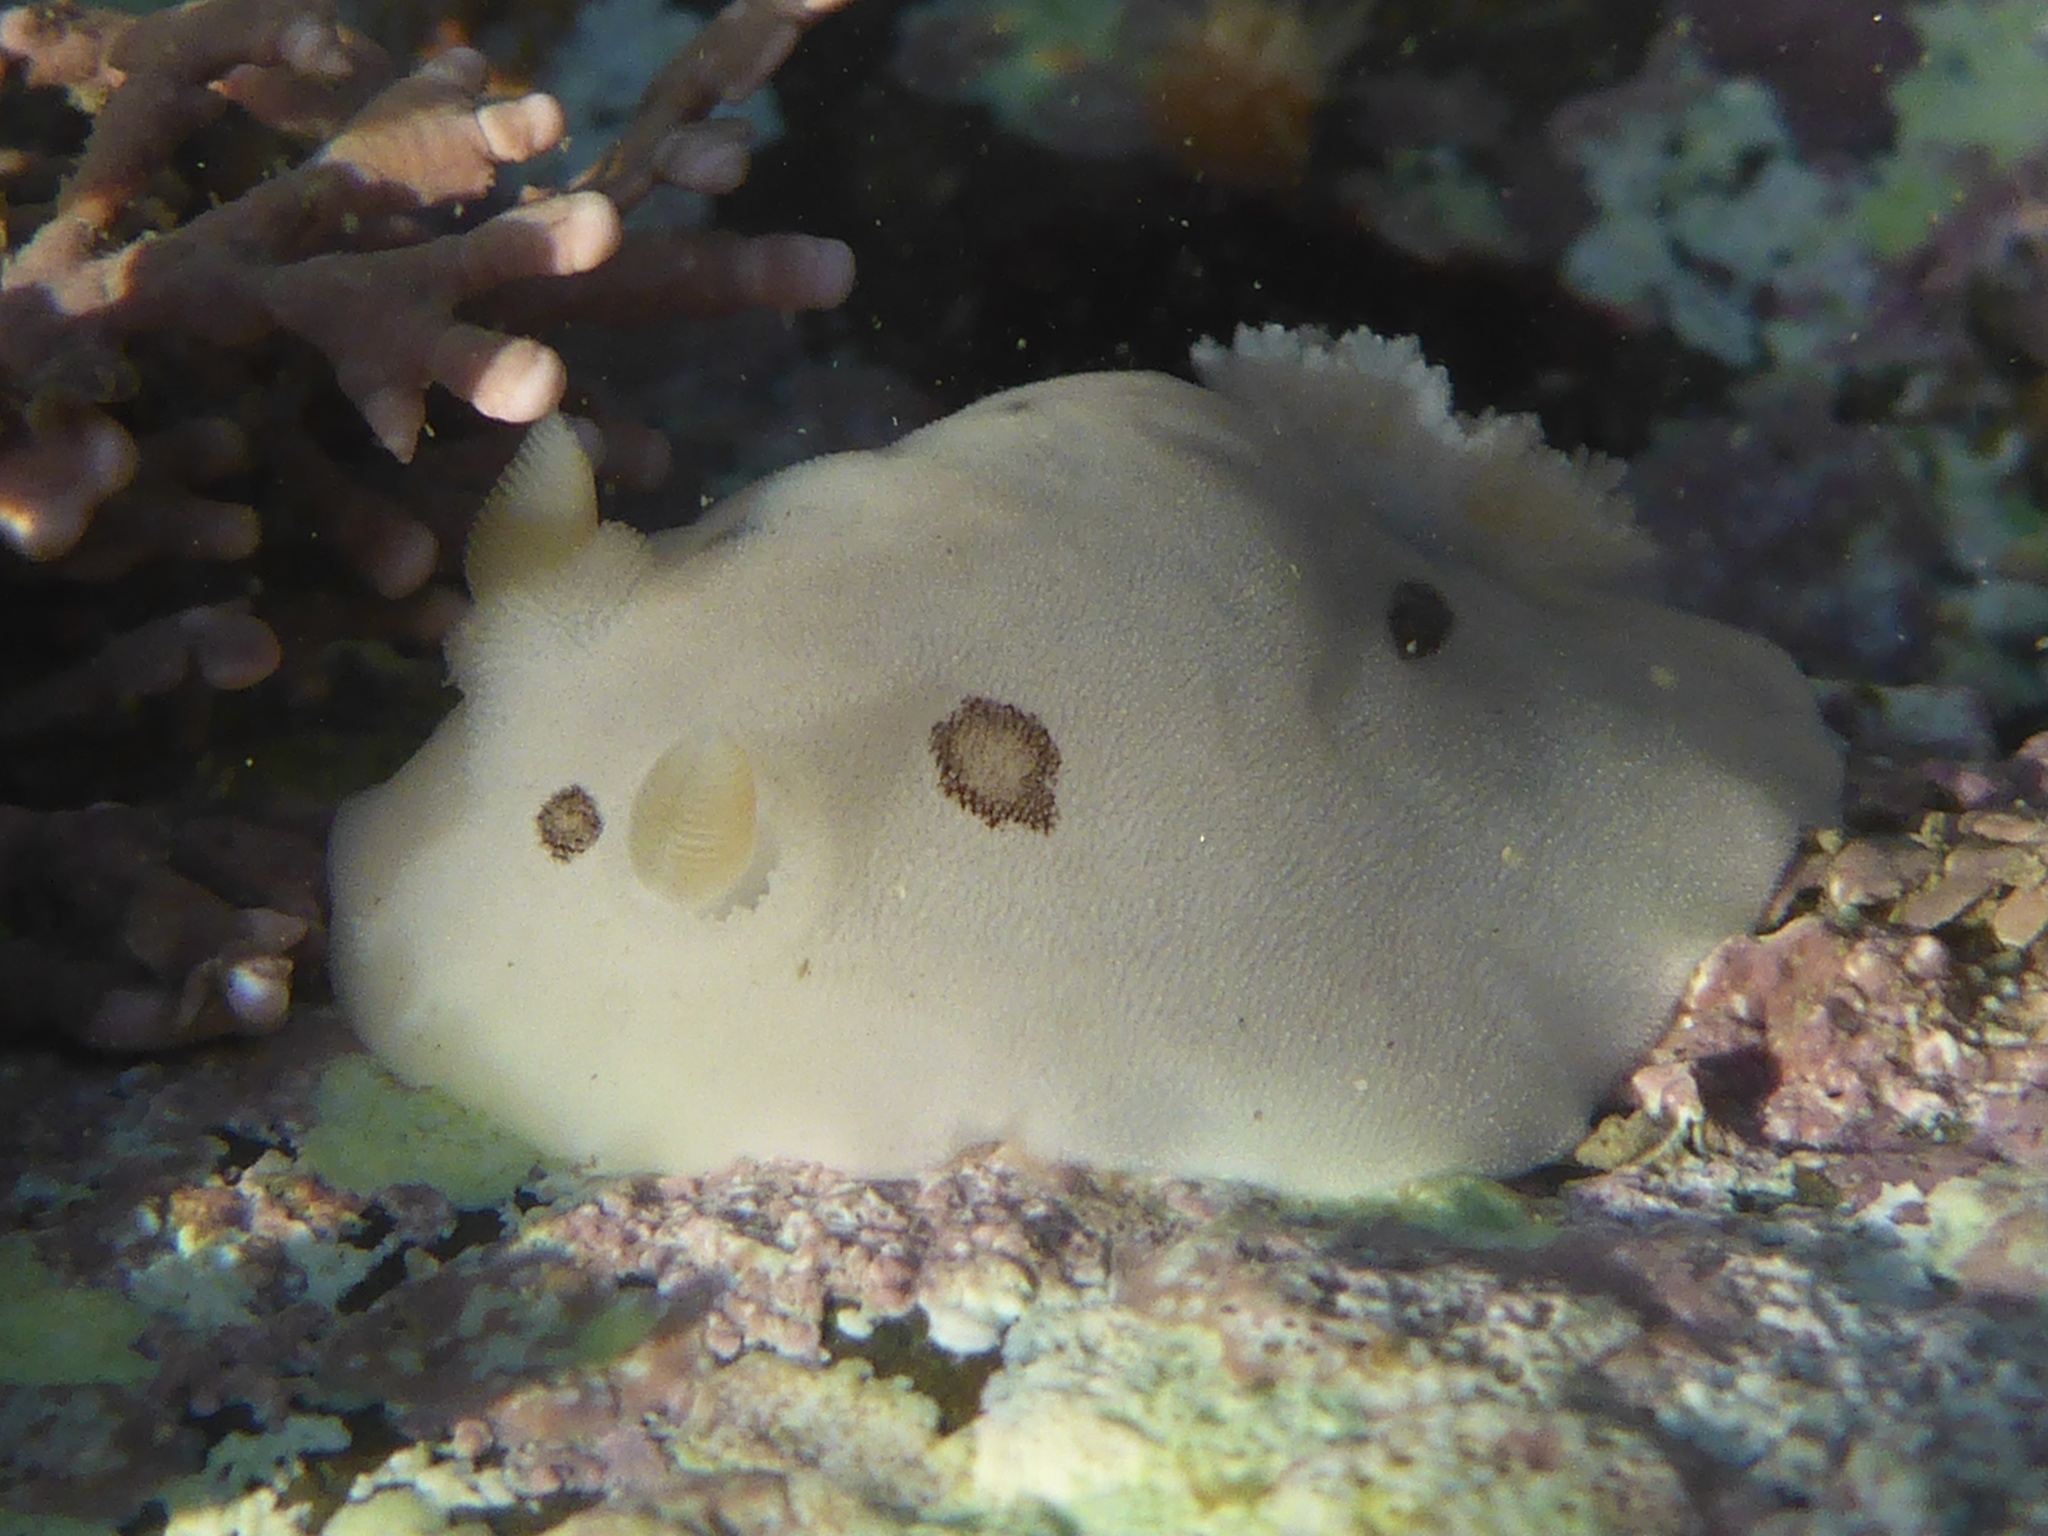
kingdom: Animalia
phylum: Mollusca
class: Gastropoda
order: Nudibranchia
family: Discodorididae
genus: Diaulula
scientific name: Diaulula sandiegensis
